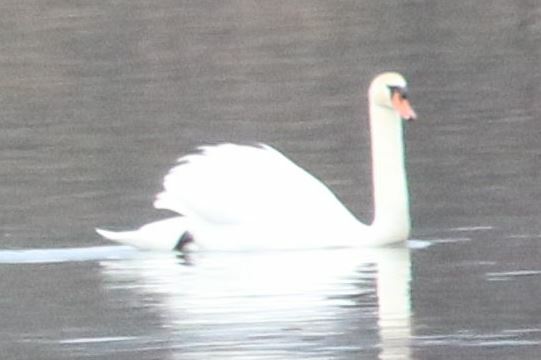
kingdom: Animalia
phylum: Chordata
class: Aves
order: Anseriformes
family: Anatidae
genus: Cygnus
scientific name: Cygnus olor
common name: Mute swan
